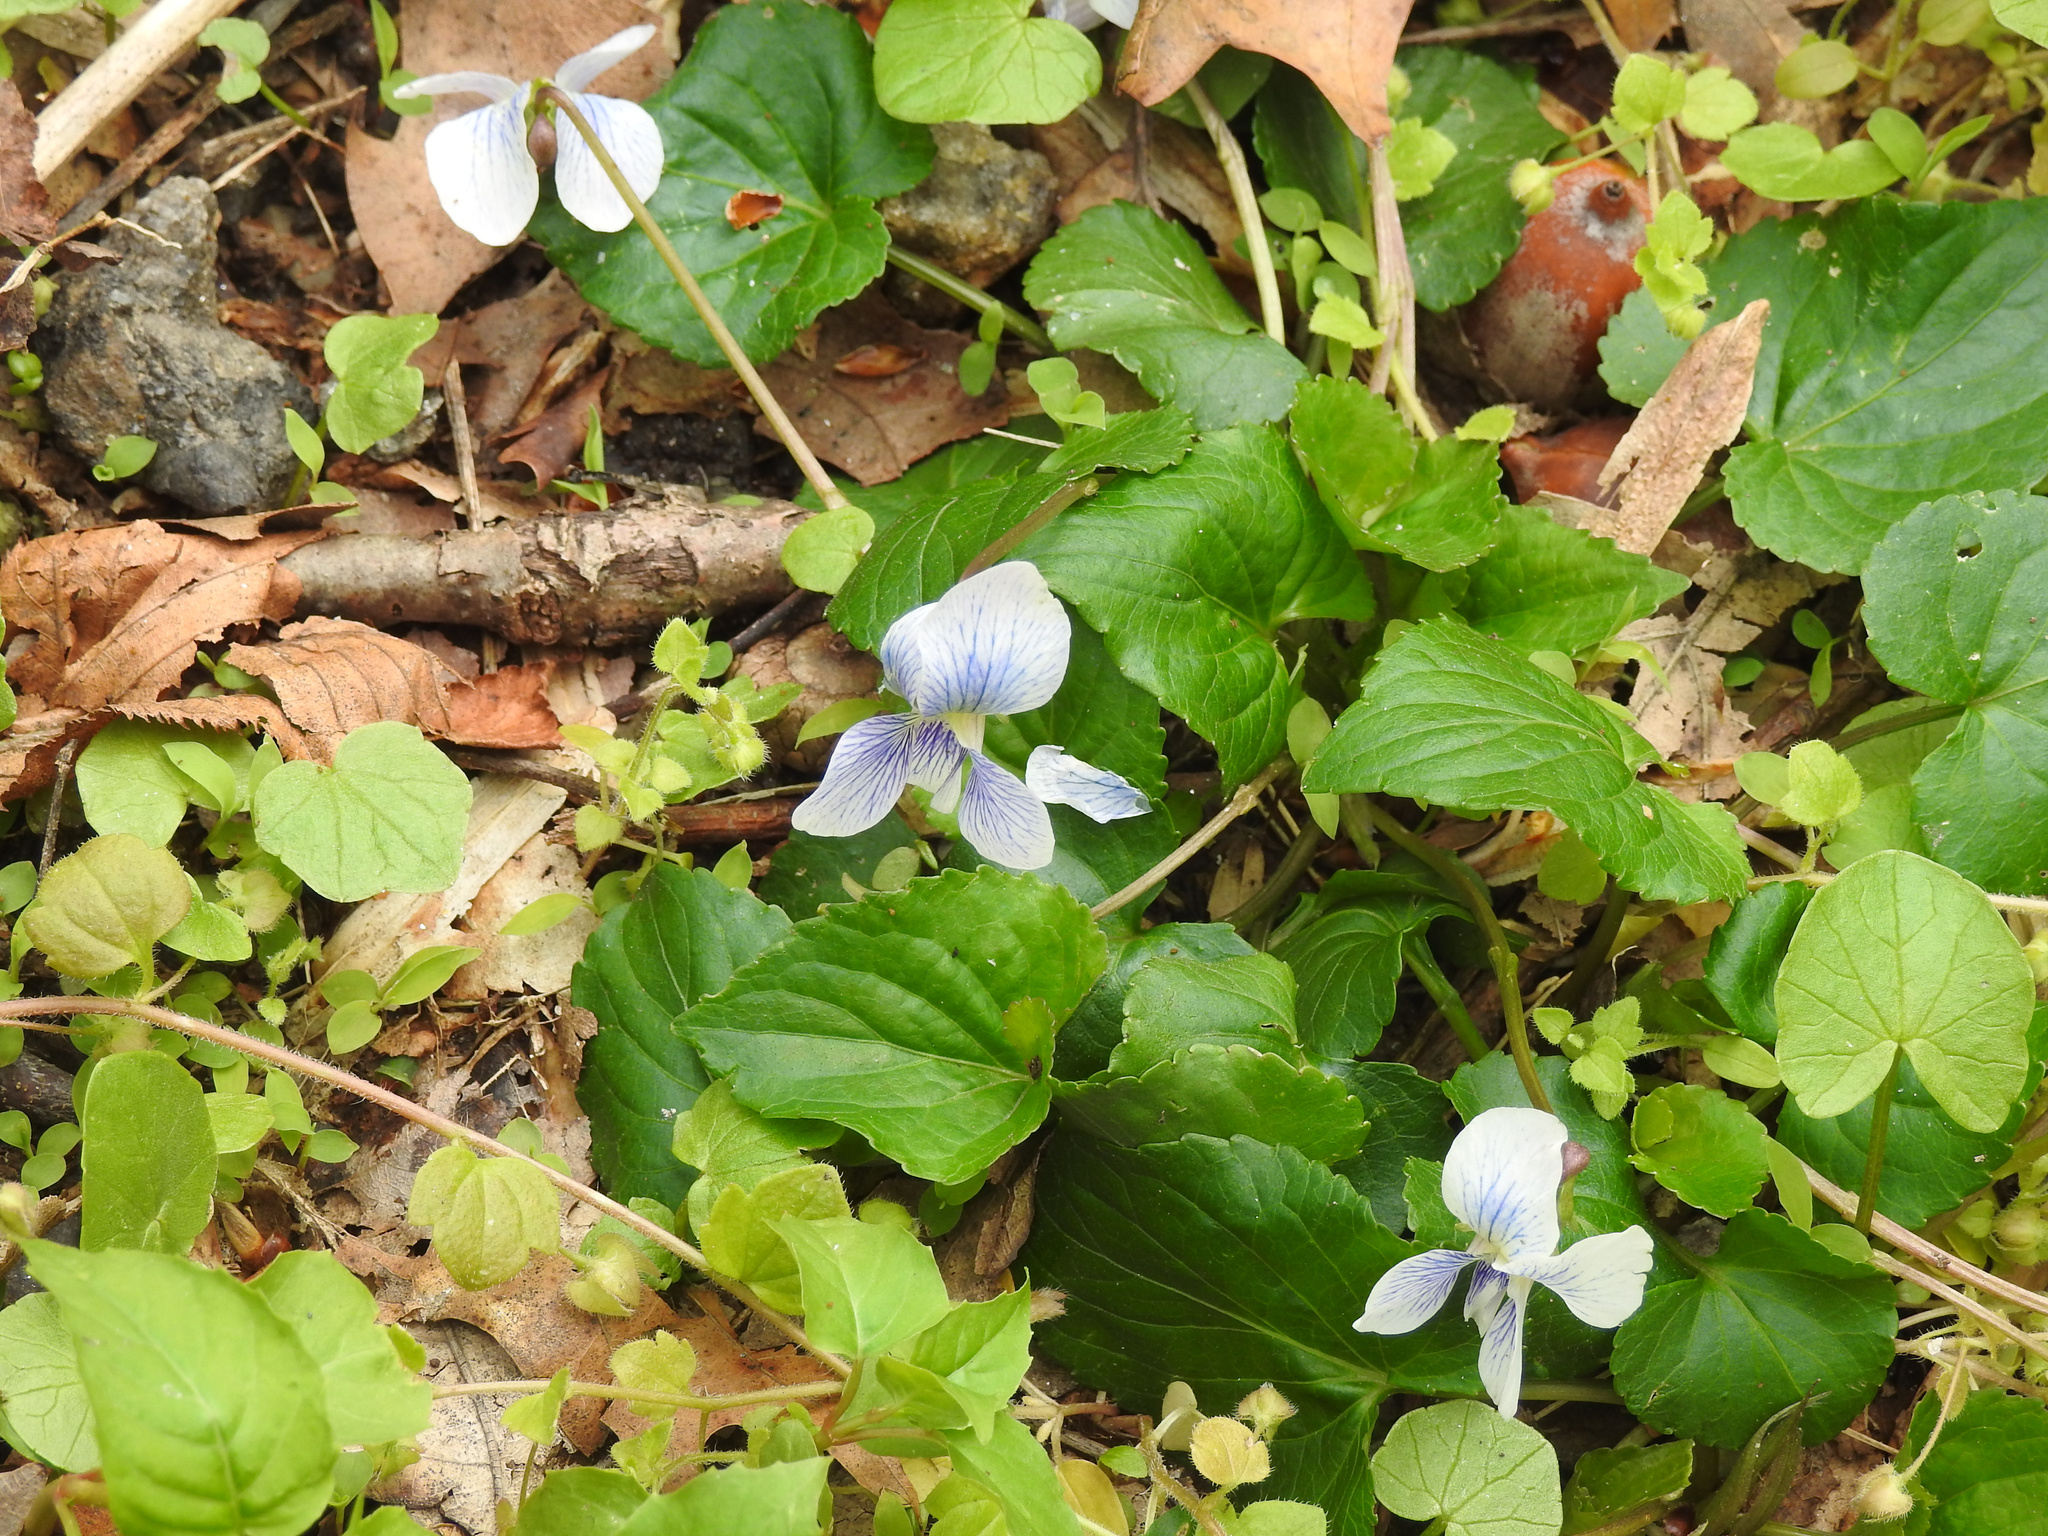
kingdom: Plantae
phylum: Tracheophyta
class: Magnoliopsida
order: Malpighiales
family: Violaceae
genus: Viola
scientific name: Viola sororia
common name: Dooryard violet
